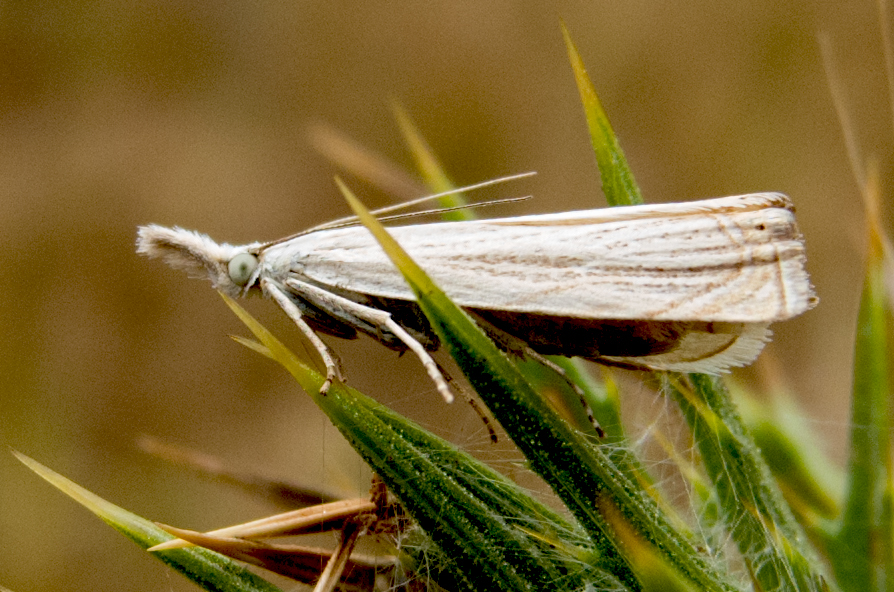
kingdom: Animalia
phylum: Arthropoda
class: Insecta
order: Lepidoptera
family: Crambidae
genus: Chrysoteuchia
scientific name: Chrysoteuchia culmella
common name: Garden grass-veneer
